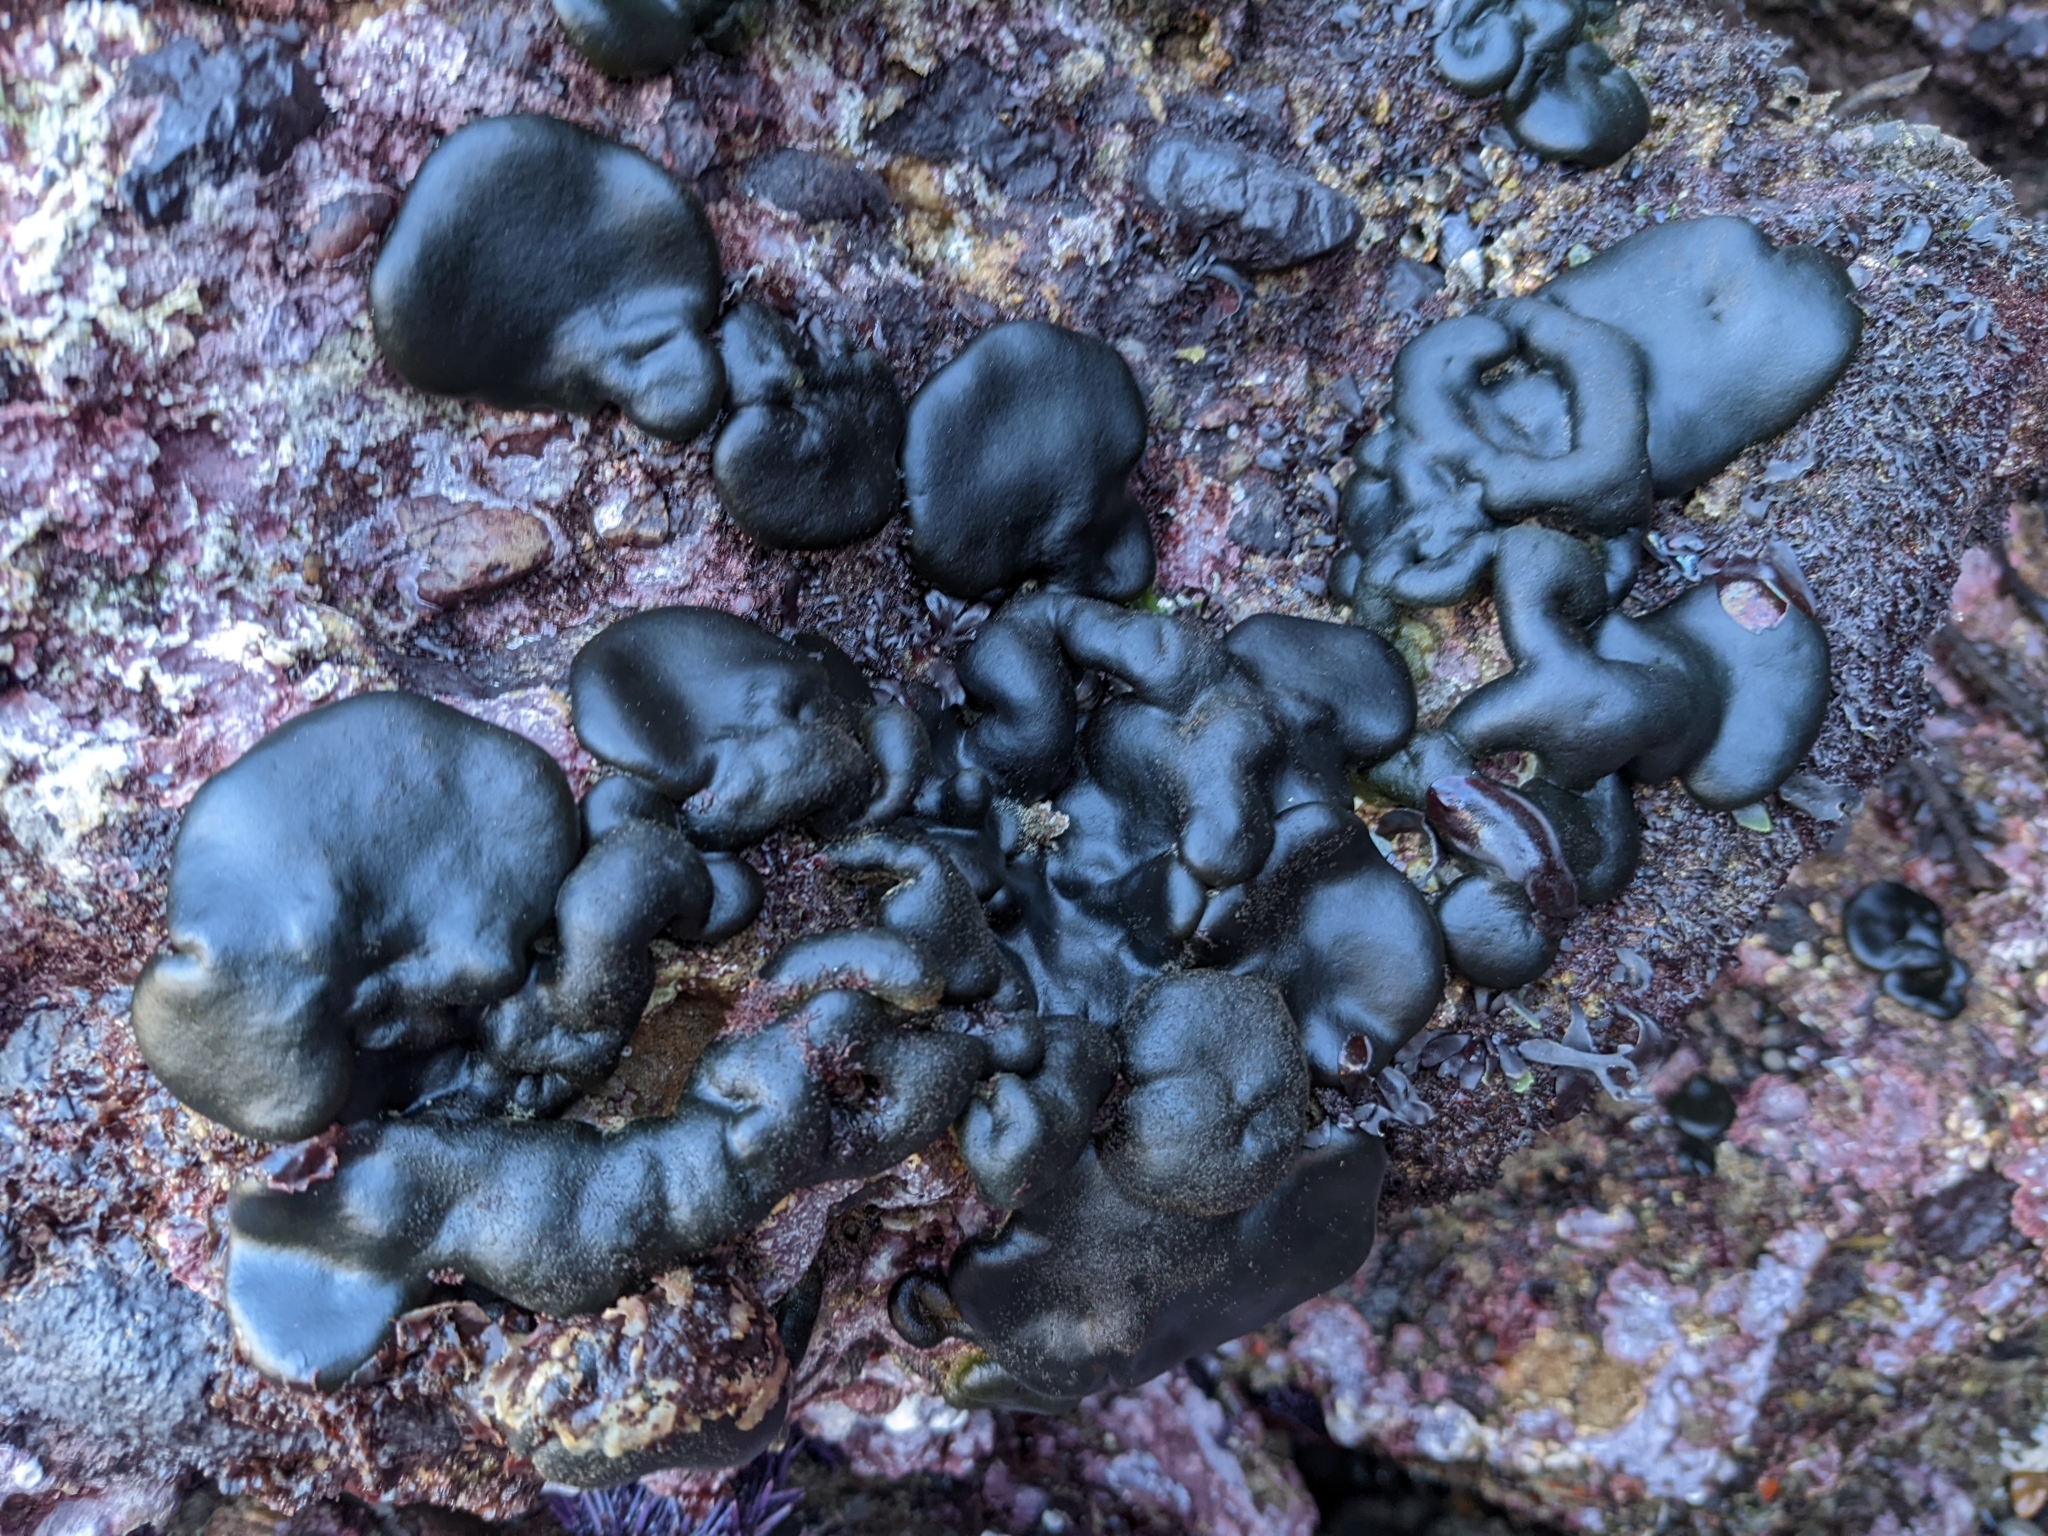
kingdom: Plantae
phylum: Chlorophyta
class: Ulvophyceae
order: Bryopsidales
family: Codiaceae
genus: Codium
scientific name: Codium setchellii
